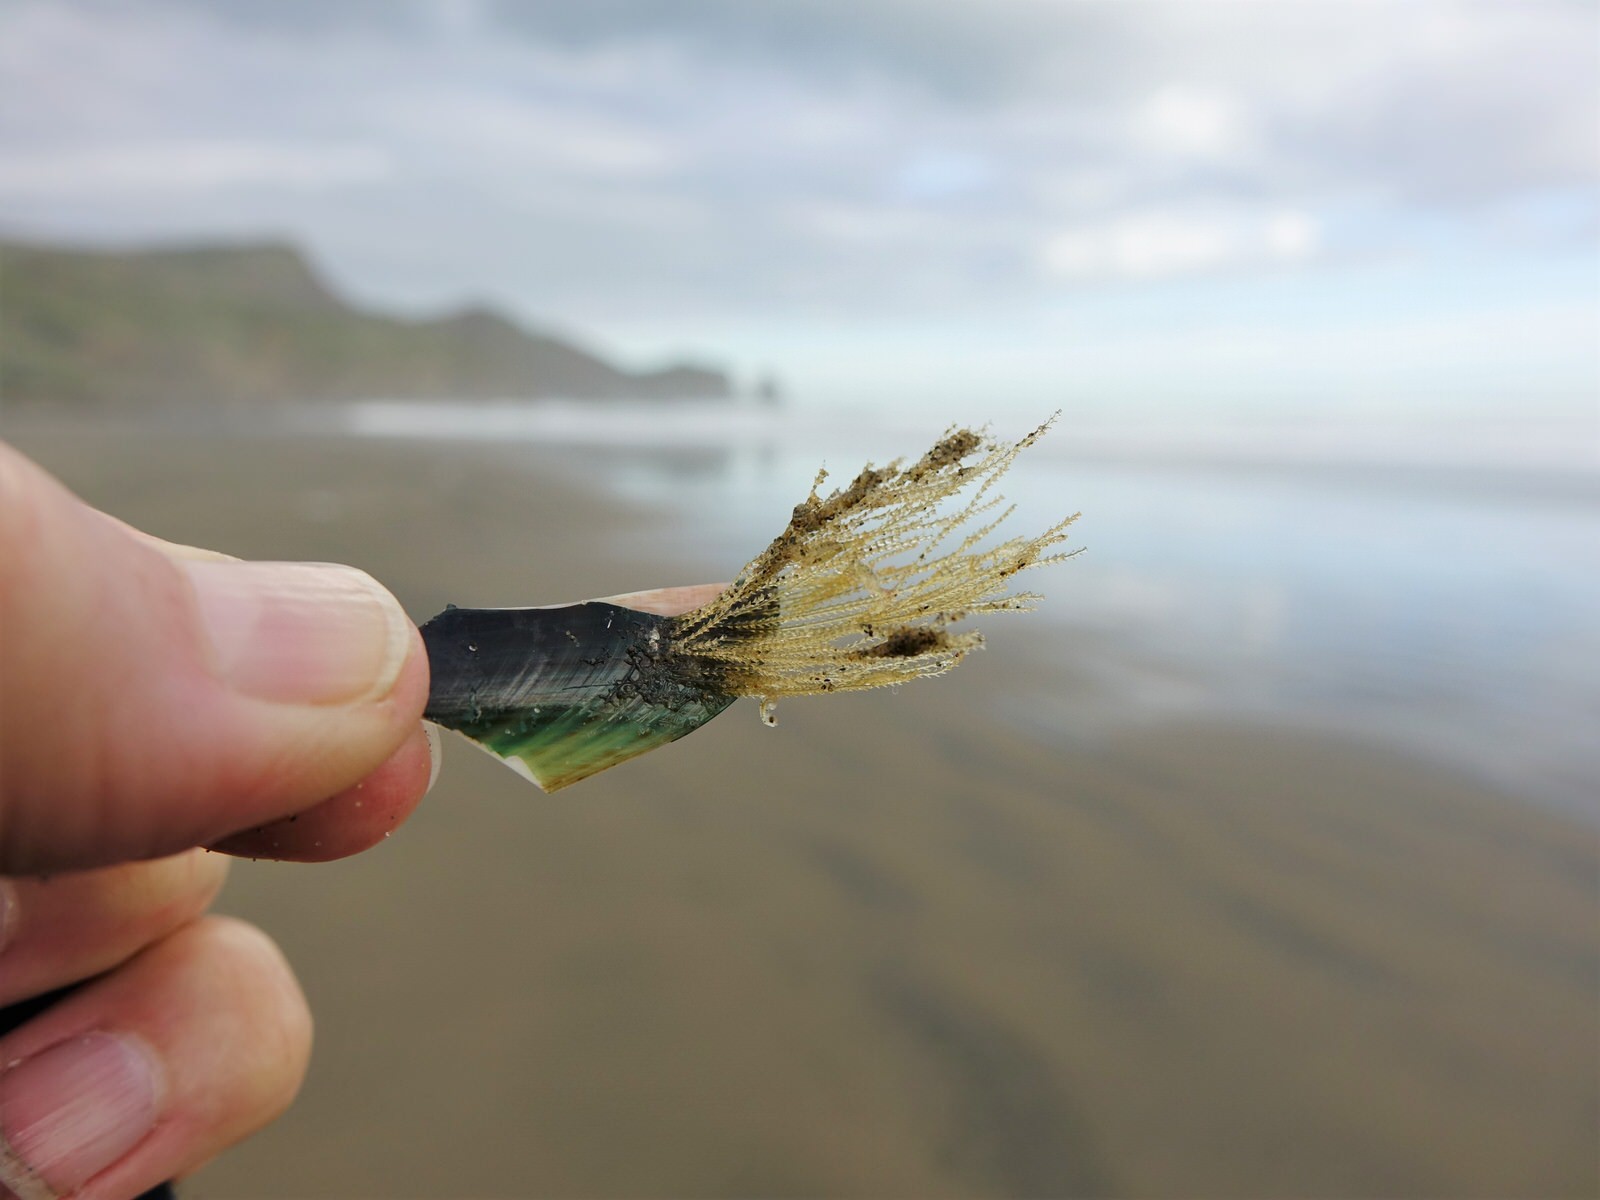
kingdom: Animalia
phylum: Cnidaria
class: Hydrozoa
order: Leptothecata
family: Sertulariidae
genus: Amphisbetia
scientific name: Amphisbetia bispinosa
